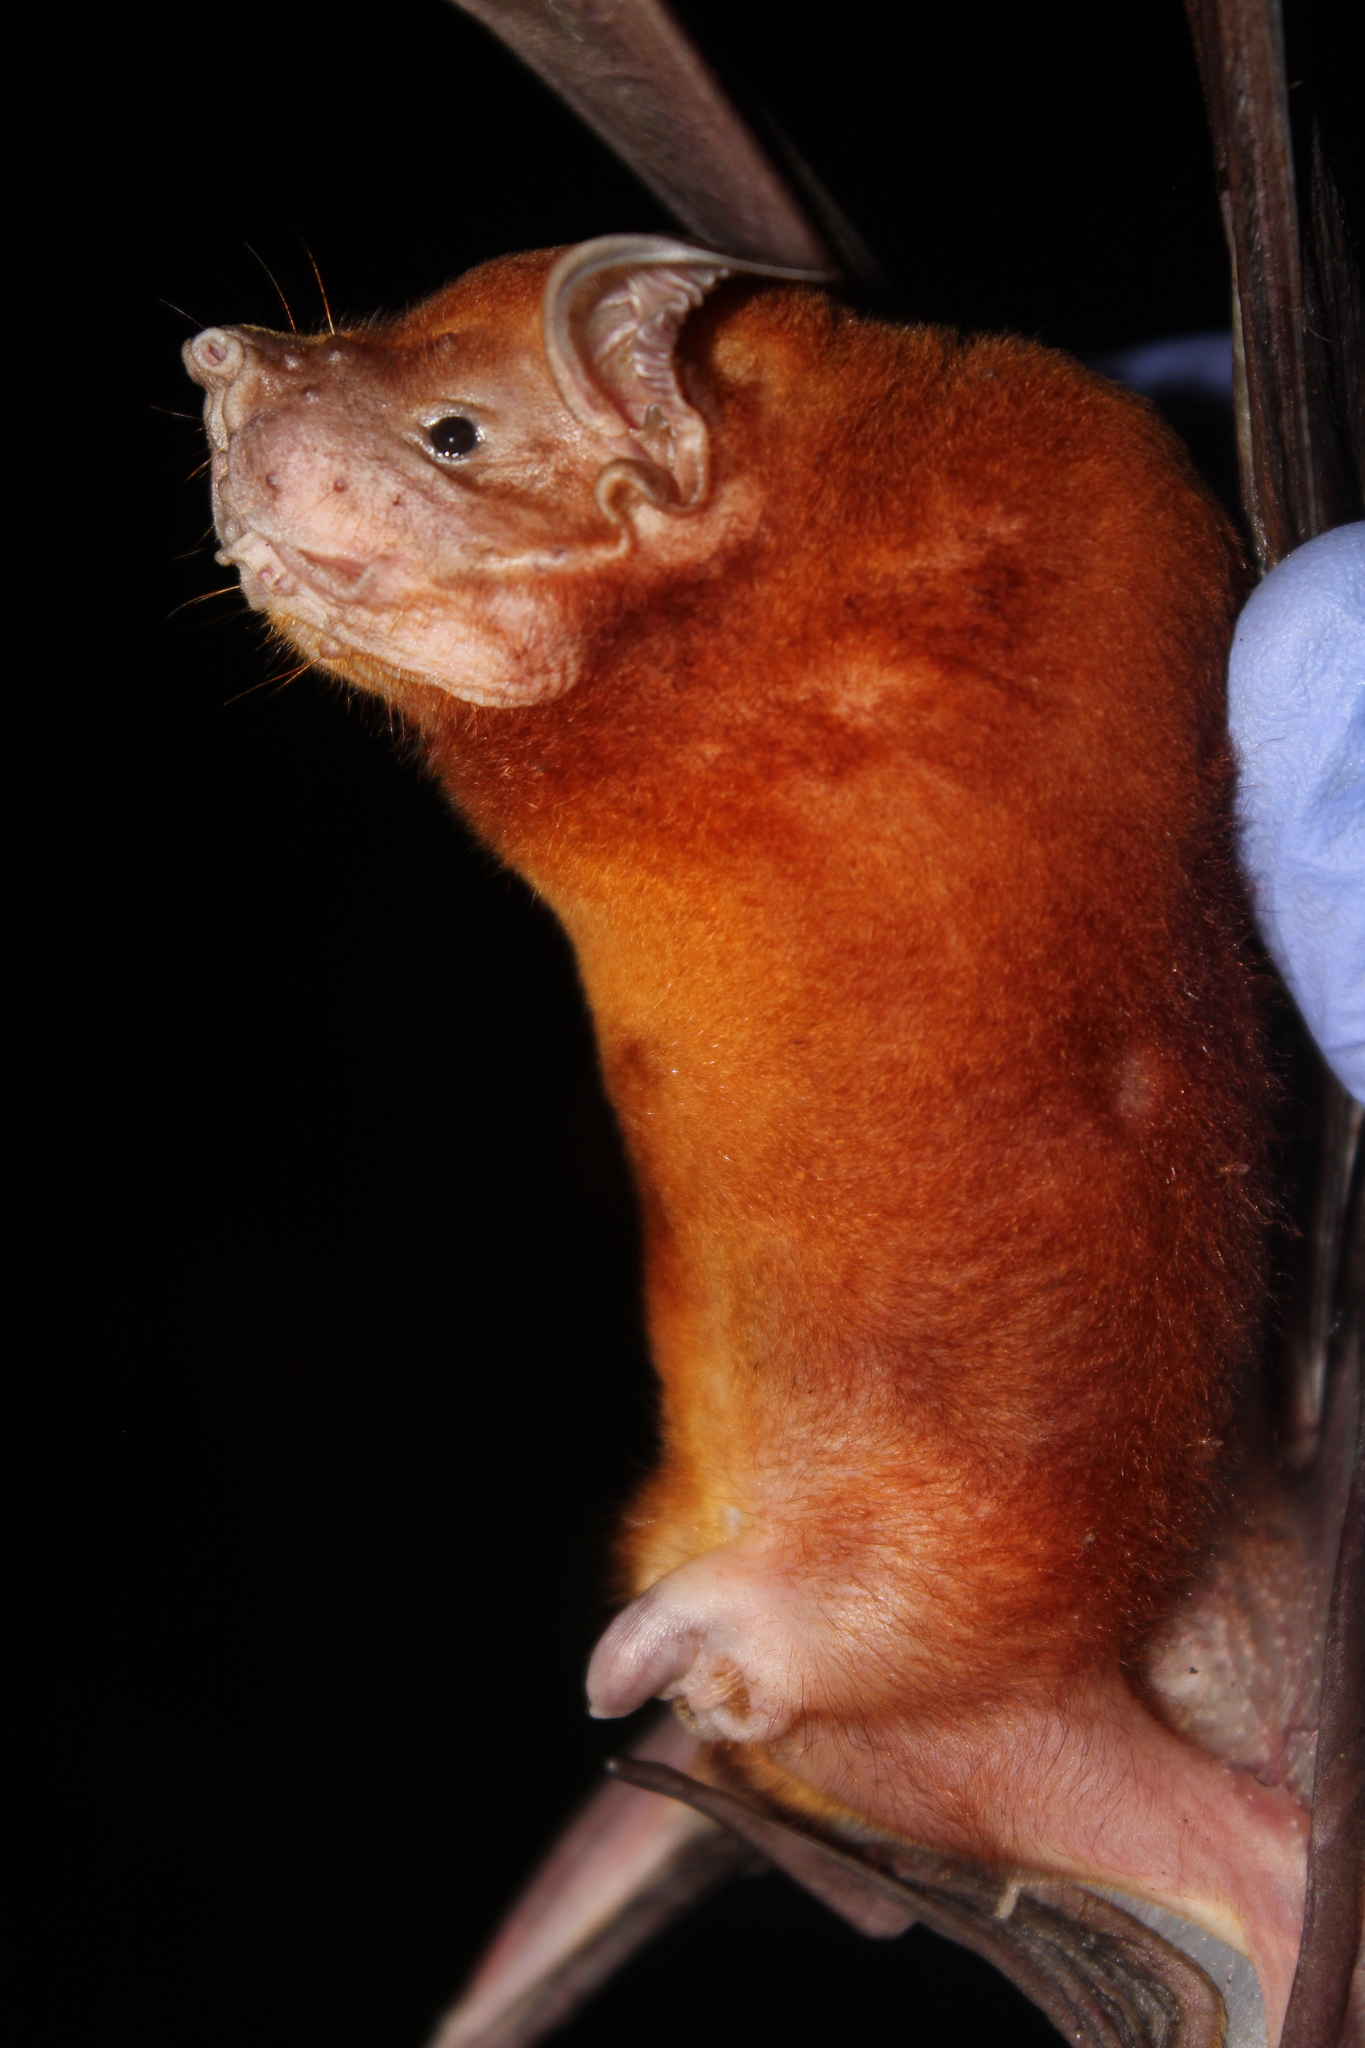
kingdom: Animalia
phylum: Chordata
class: Mammalia
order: Chiroptera
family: Noctilionidae
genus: Noctilio
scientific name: Noctilio leporinus
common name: Greater bulldog bat
